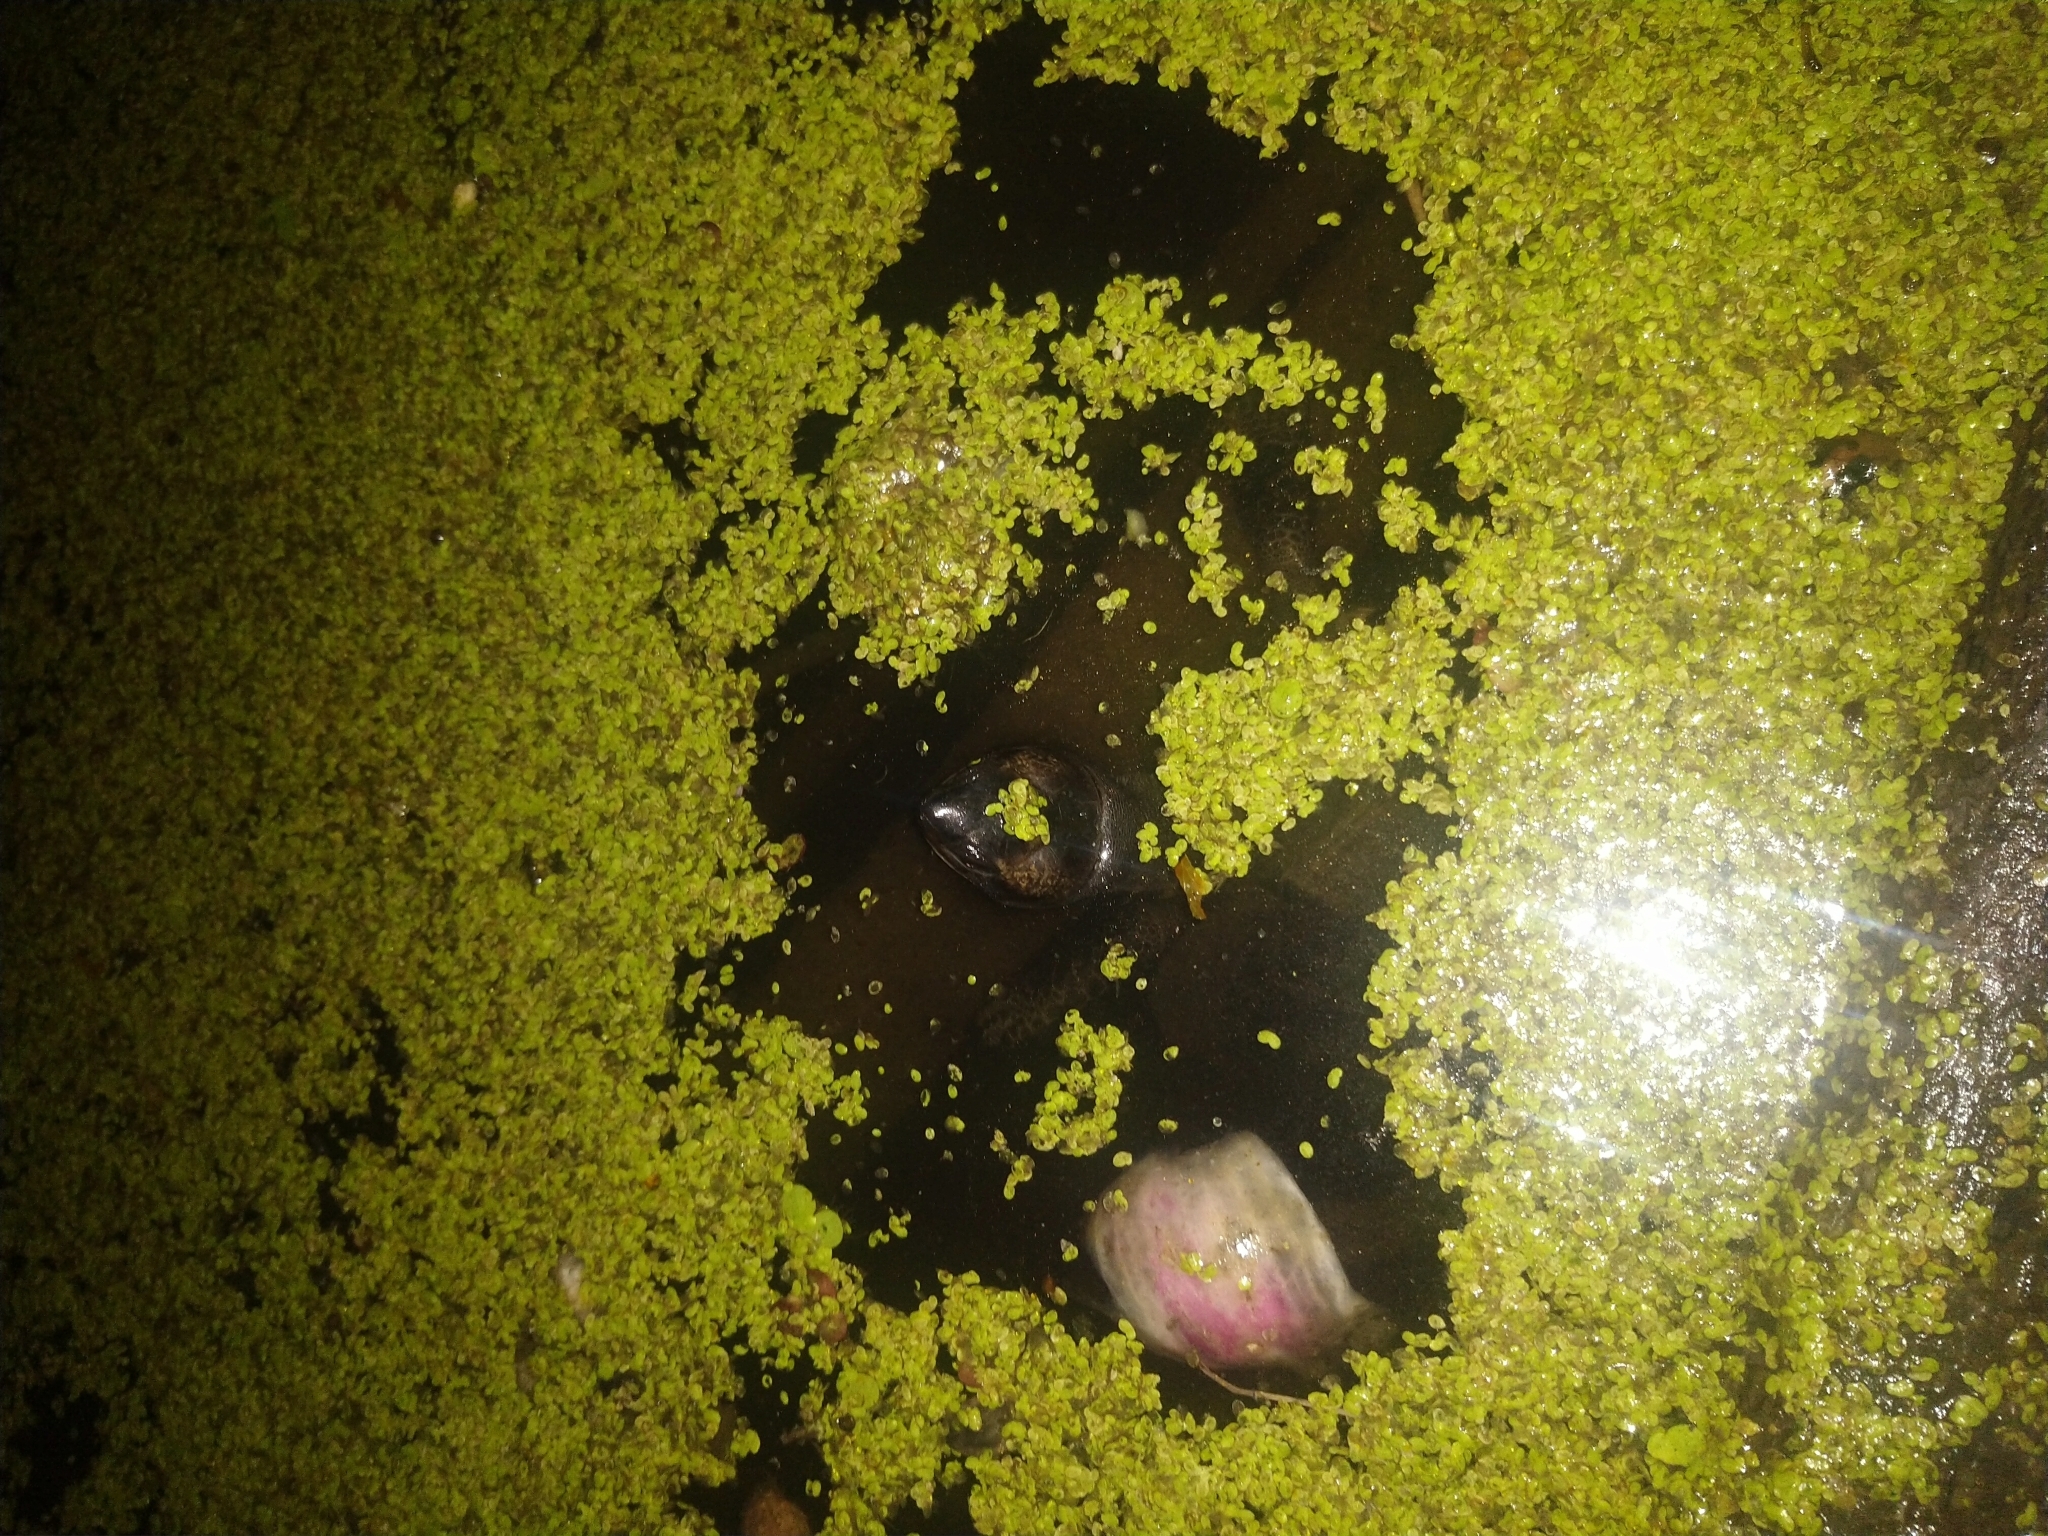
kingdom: Animalia
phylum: Chordata
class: Testudines
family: Geoemydidae
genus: Melanochelys
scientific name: Melanochelys trijuga
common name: Indian black turtle
